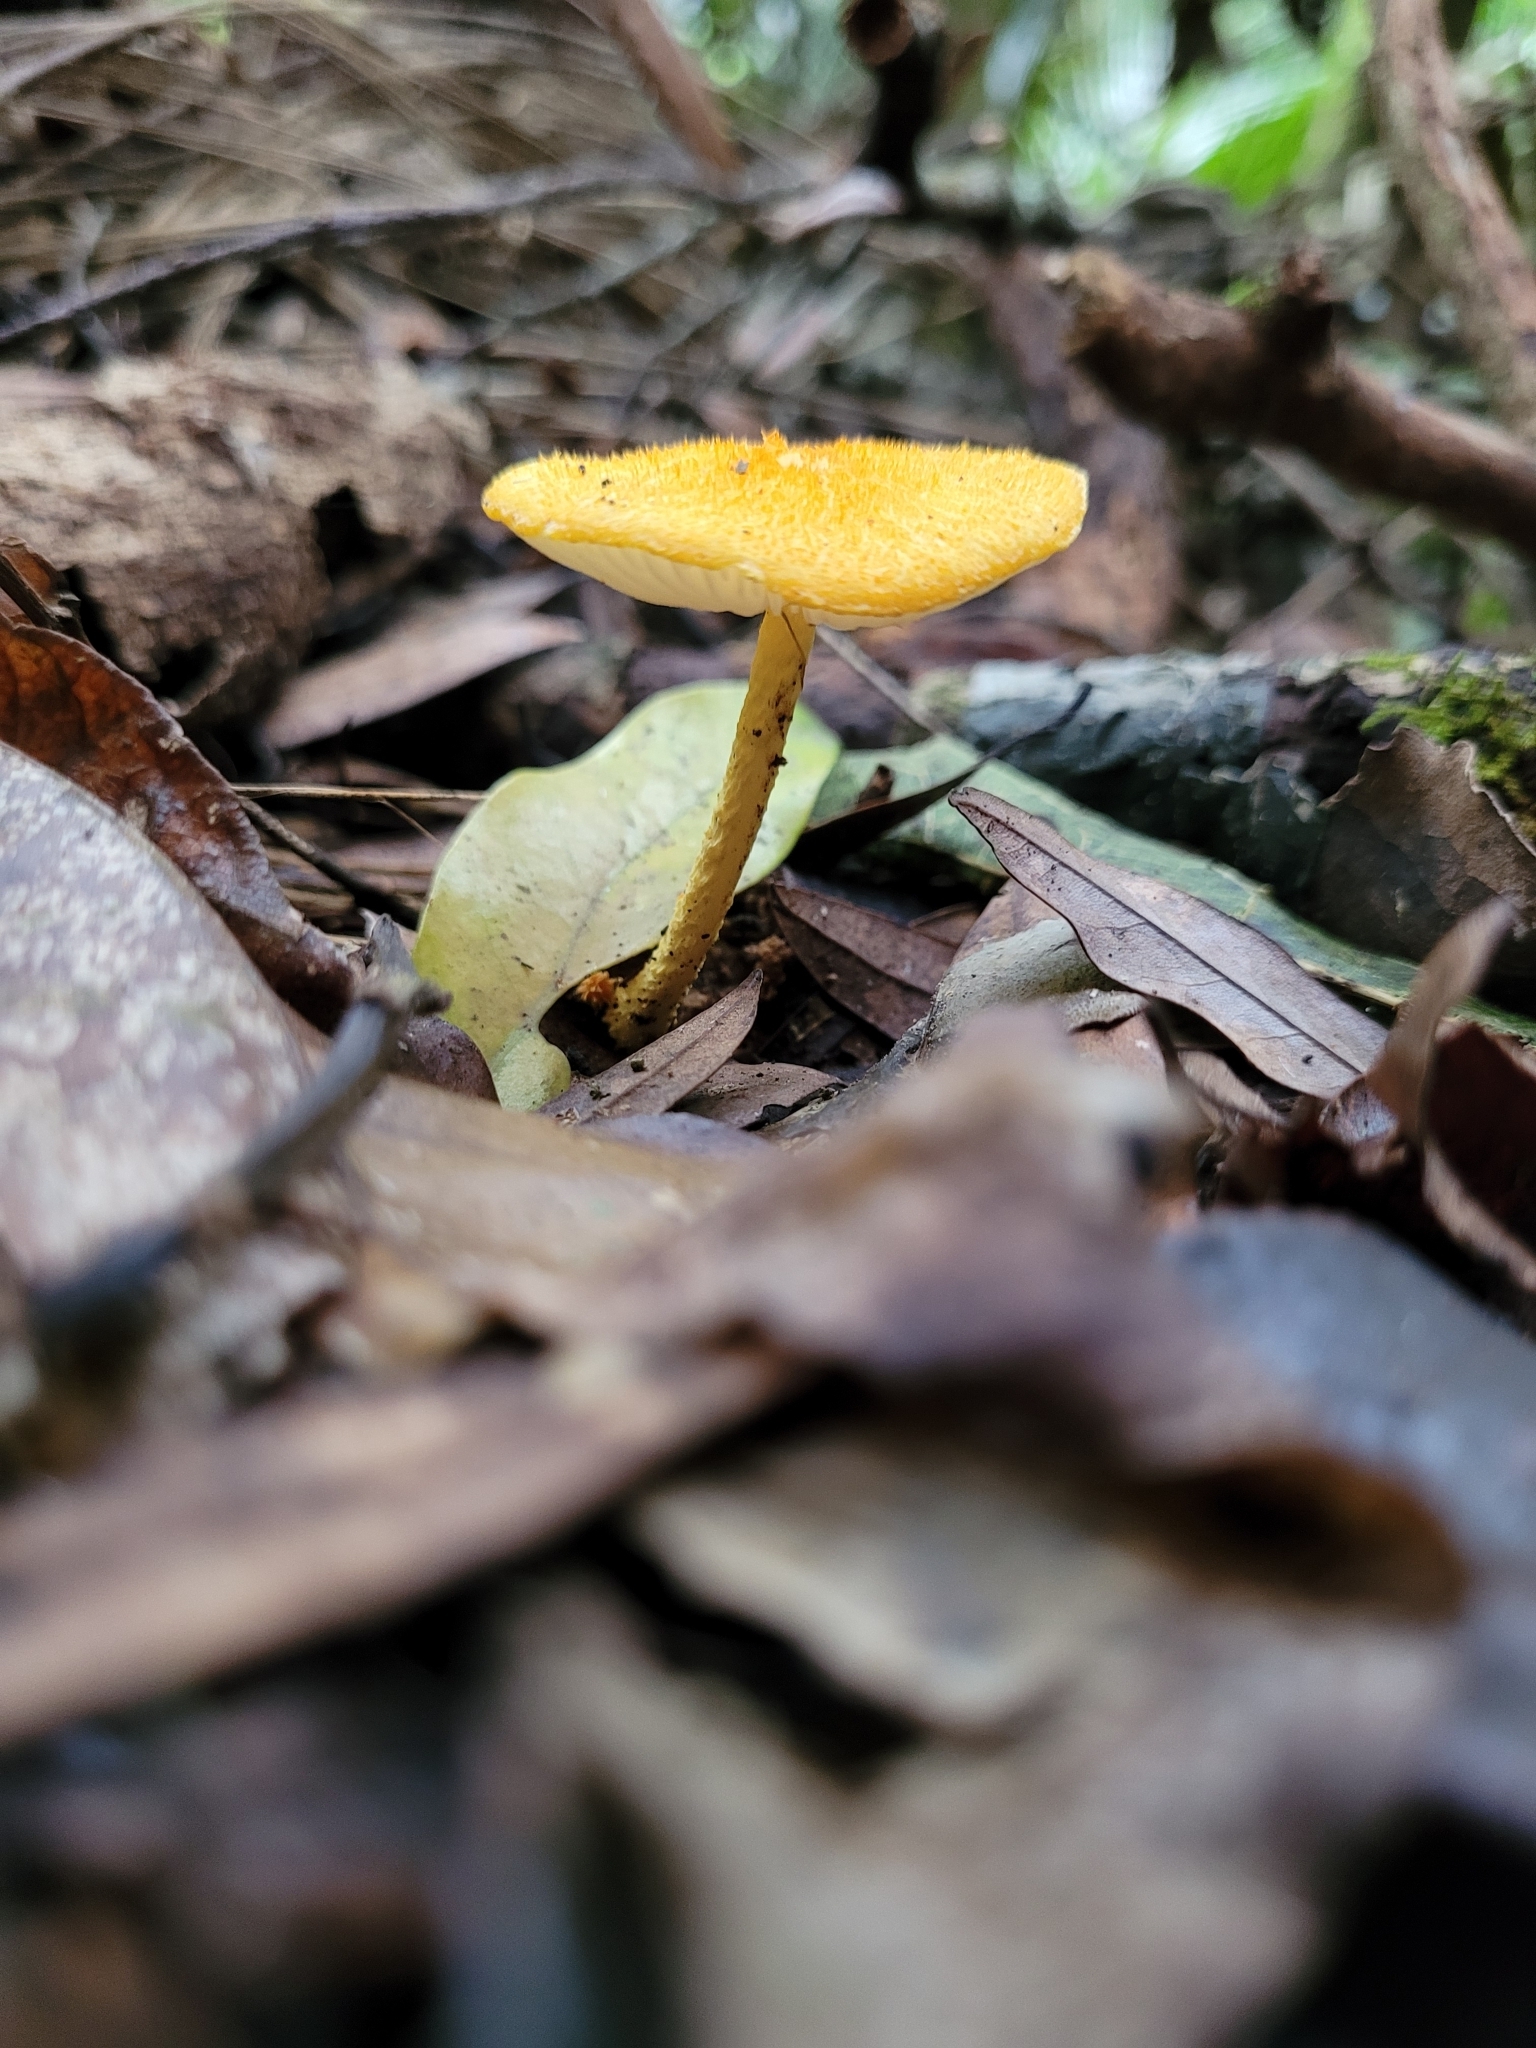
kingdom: Fungi
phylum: Basidiomycota
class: Agaricomycetes
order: Agaricales
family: Physalacriaceae
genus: Cyptotrama
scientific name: Cyptotrama asprata
